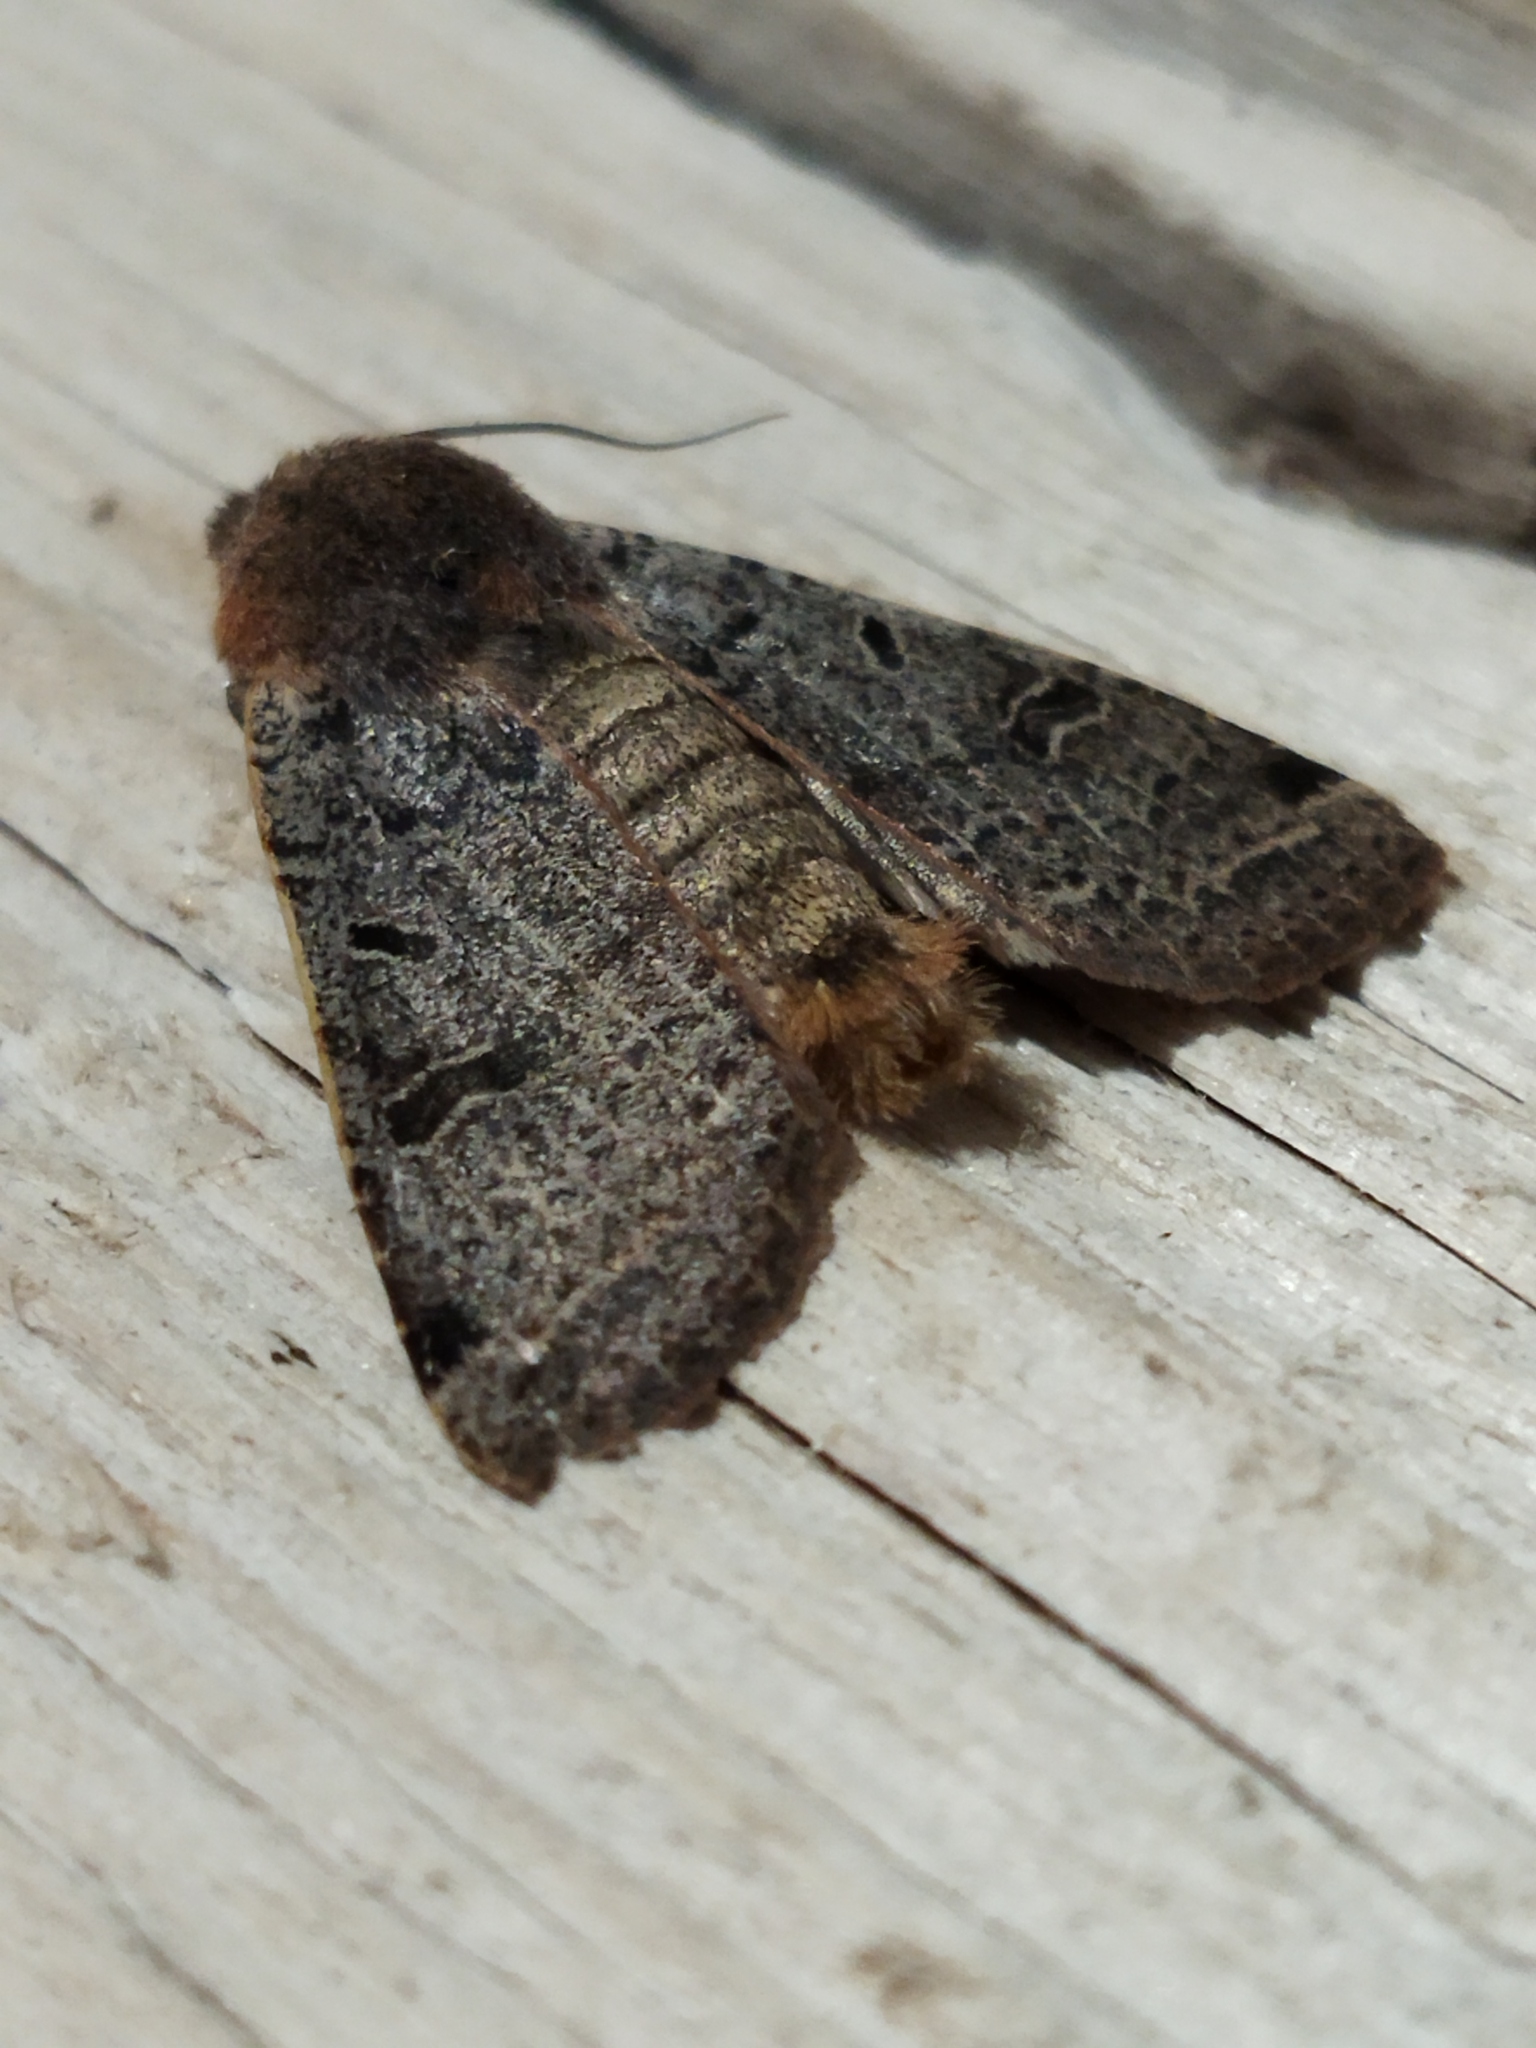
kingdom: Animalia
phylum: Arthropoda
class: Insecta
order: Lepidoptera
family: Noctuidae
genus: Agrochola
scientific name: Agrochola lychnidis
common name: Beaded chestnut
